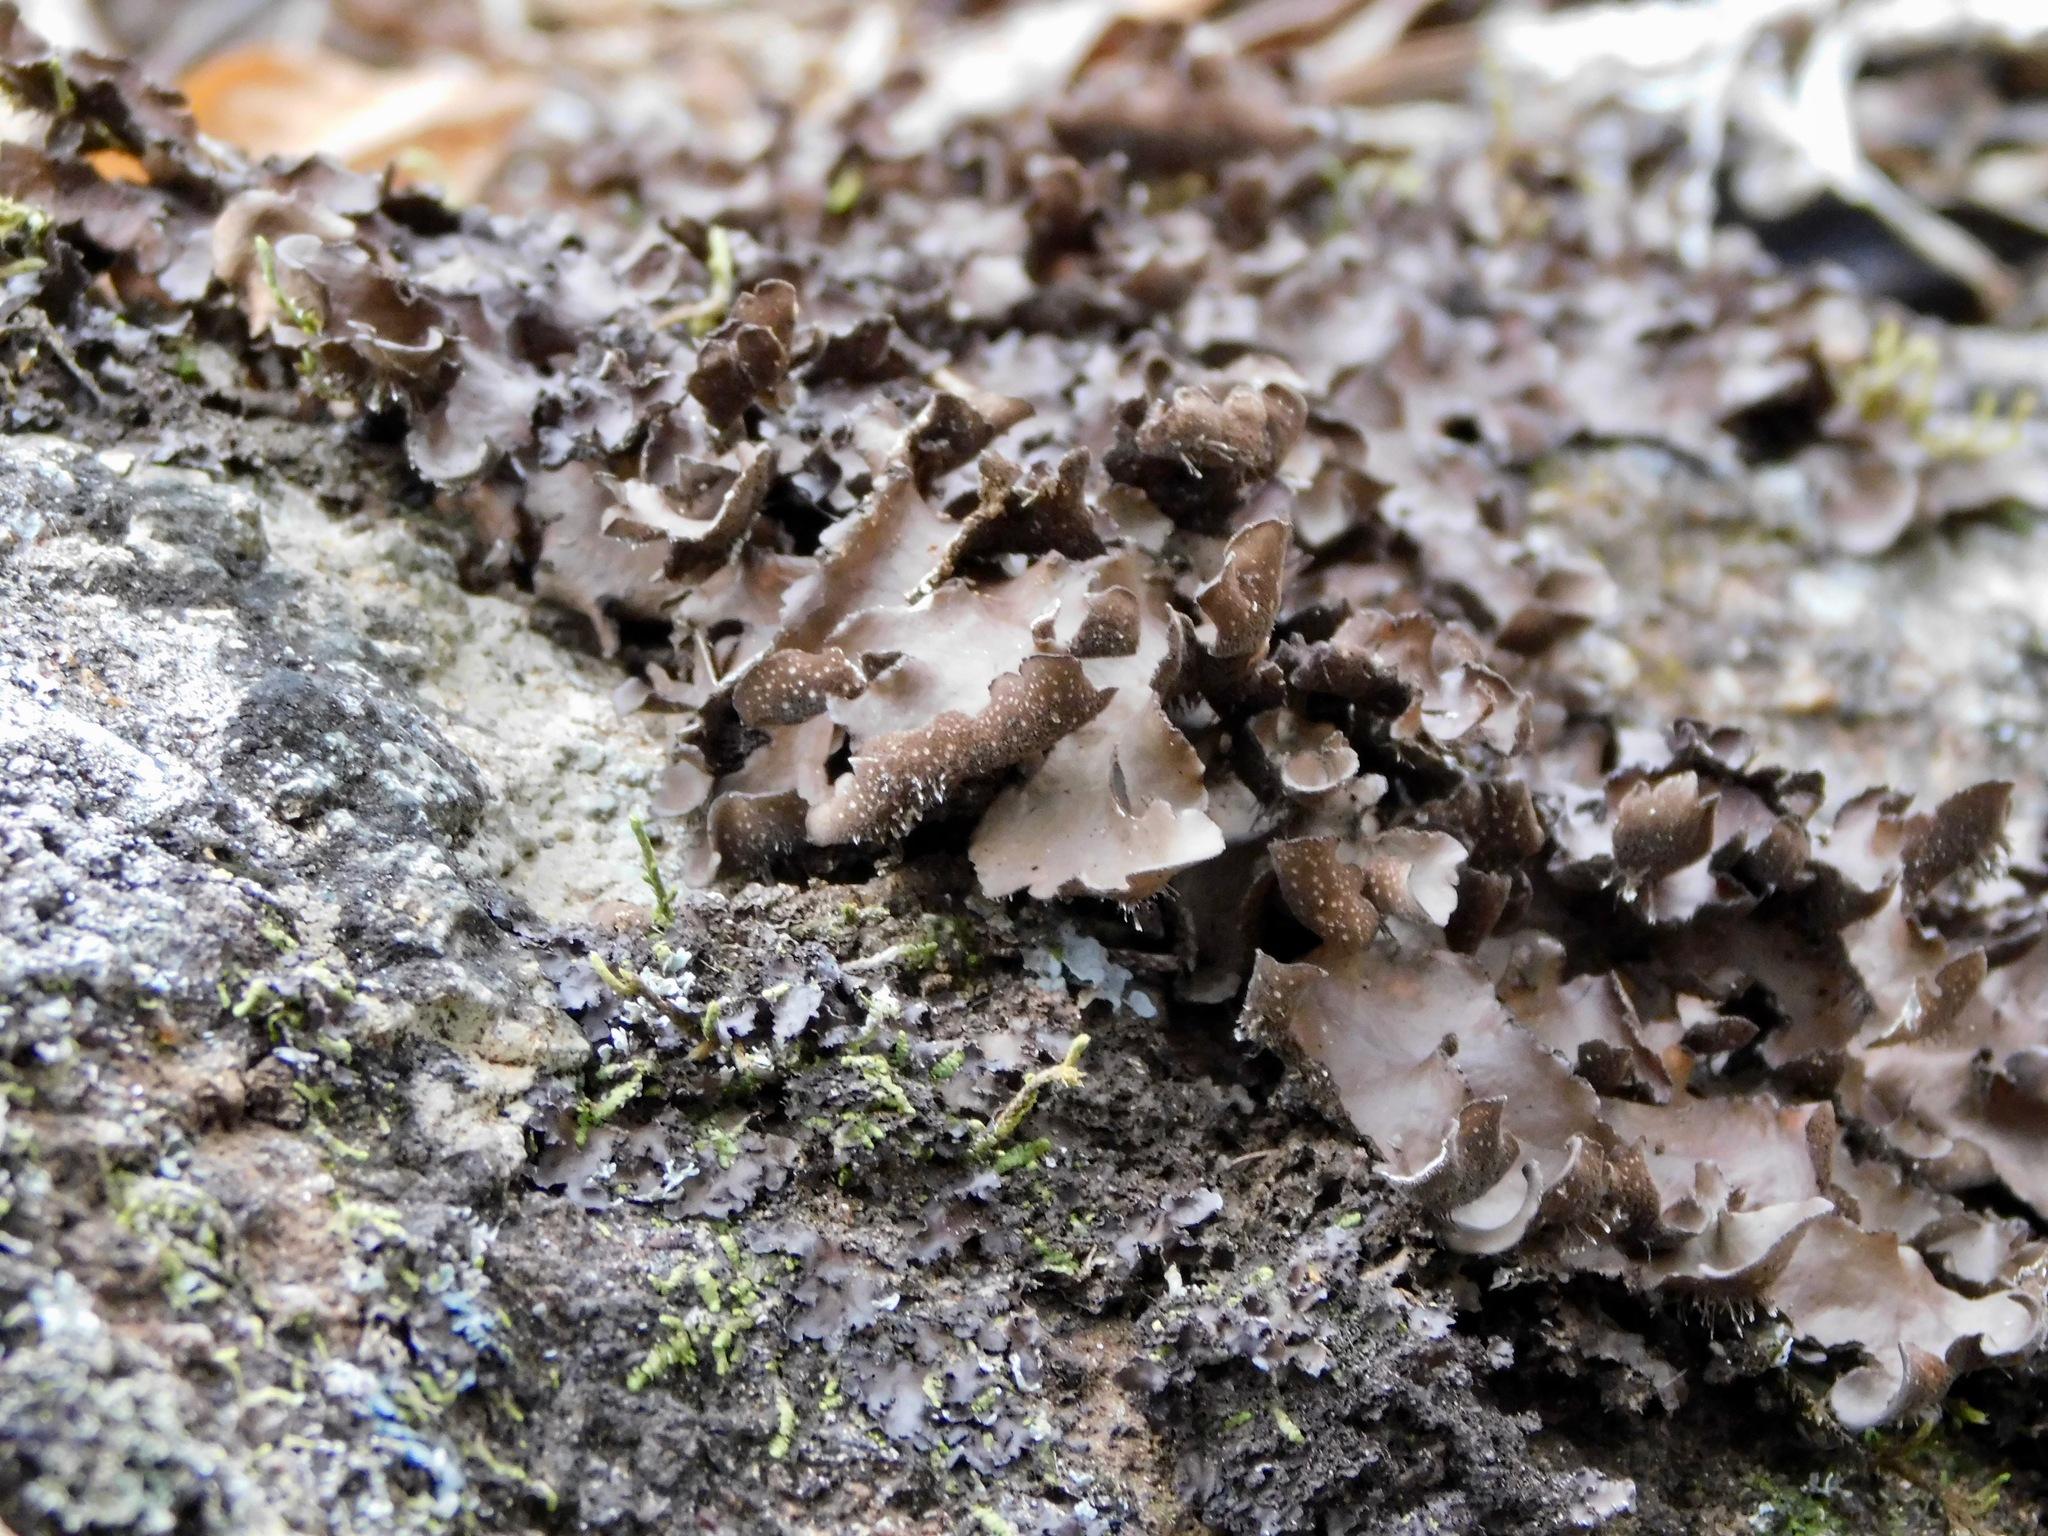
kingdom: Fungi
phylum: Ascomycota
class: Lecanoromycetes
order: Peltigerales
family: Lobariaceae
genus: Sticta
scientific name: Sticta beauvoisii
